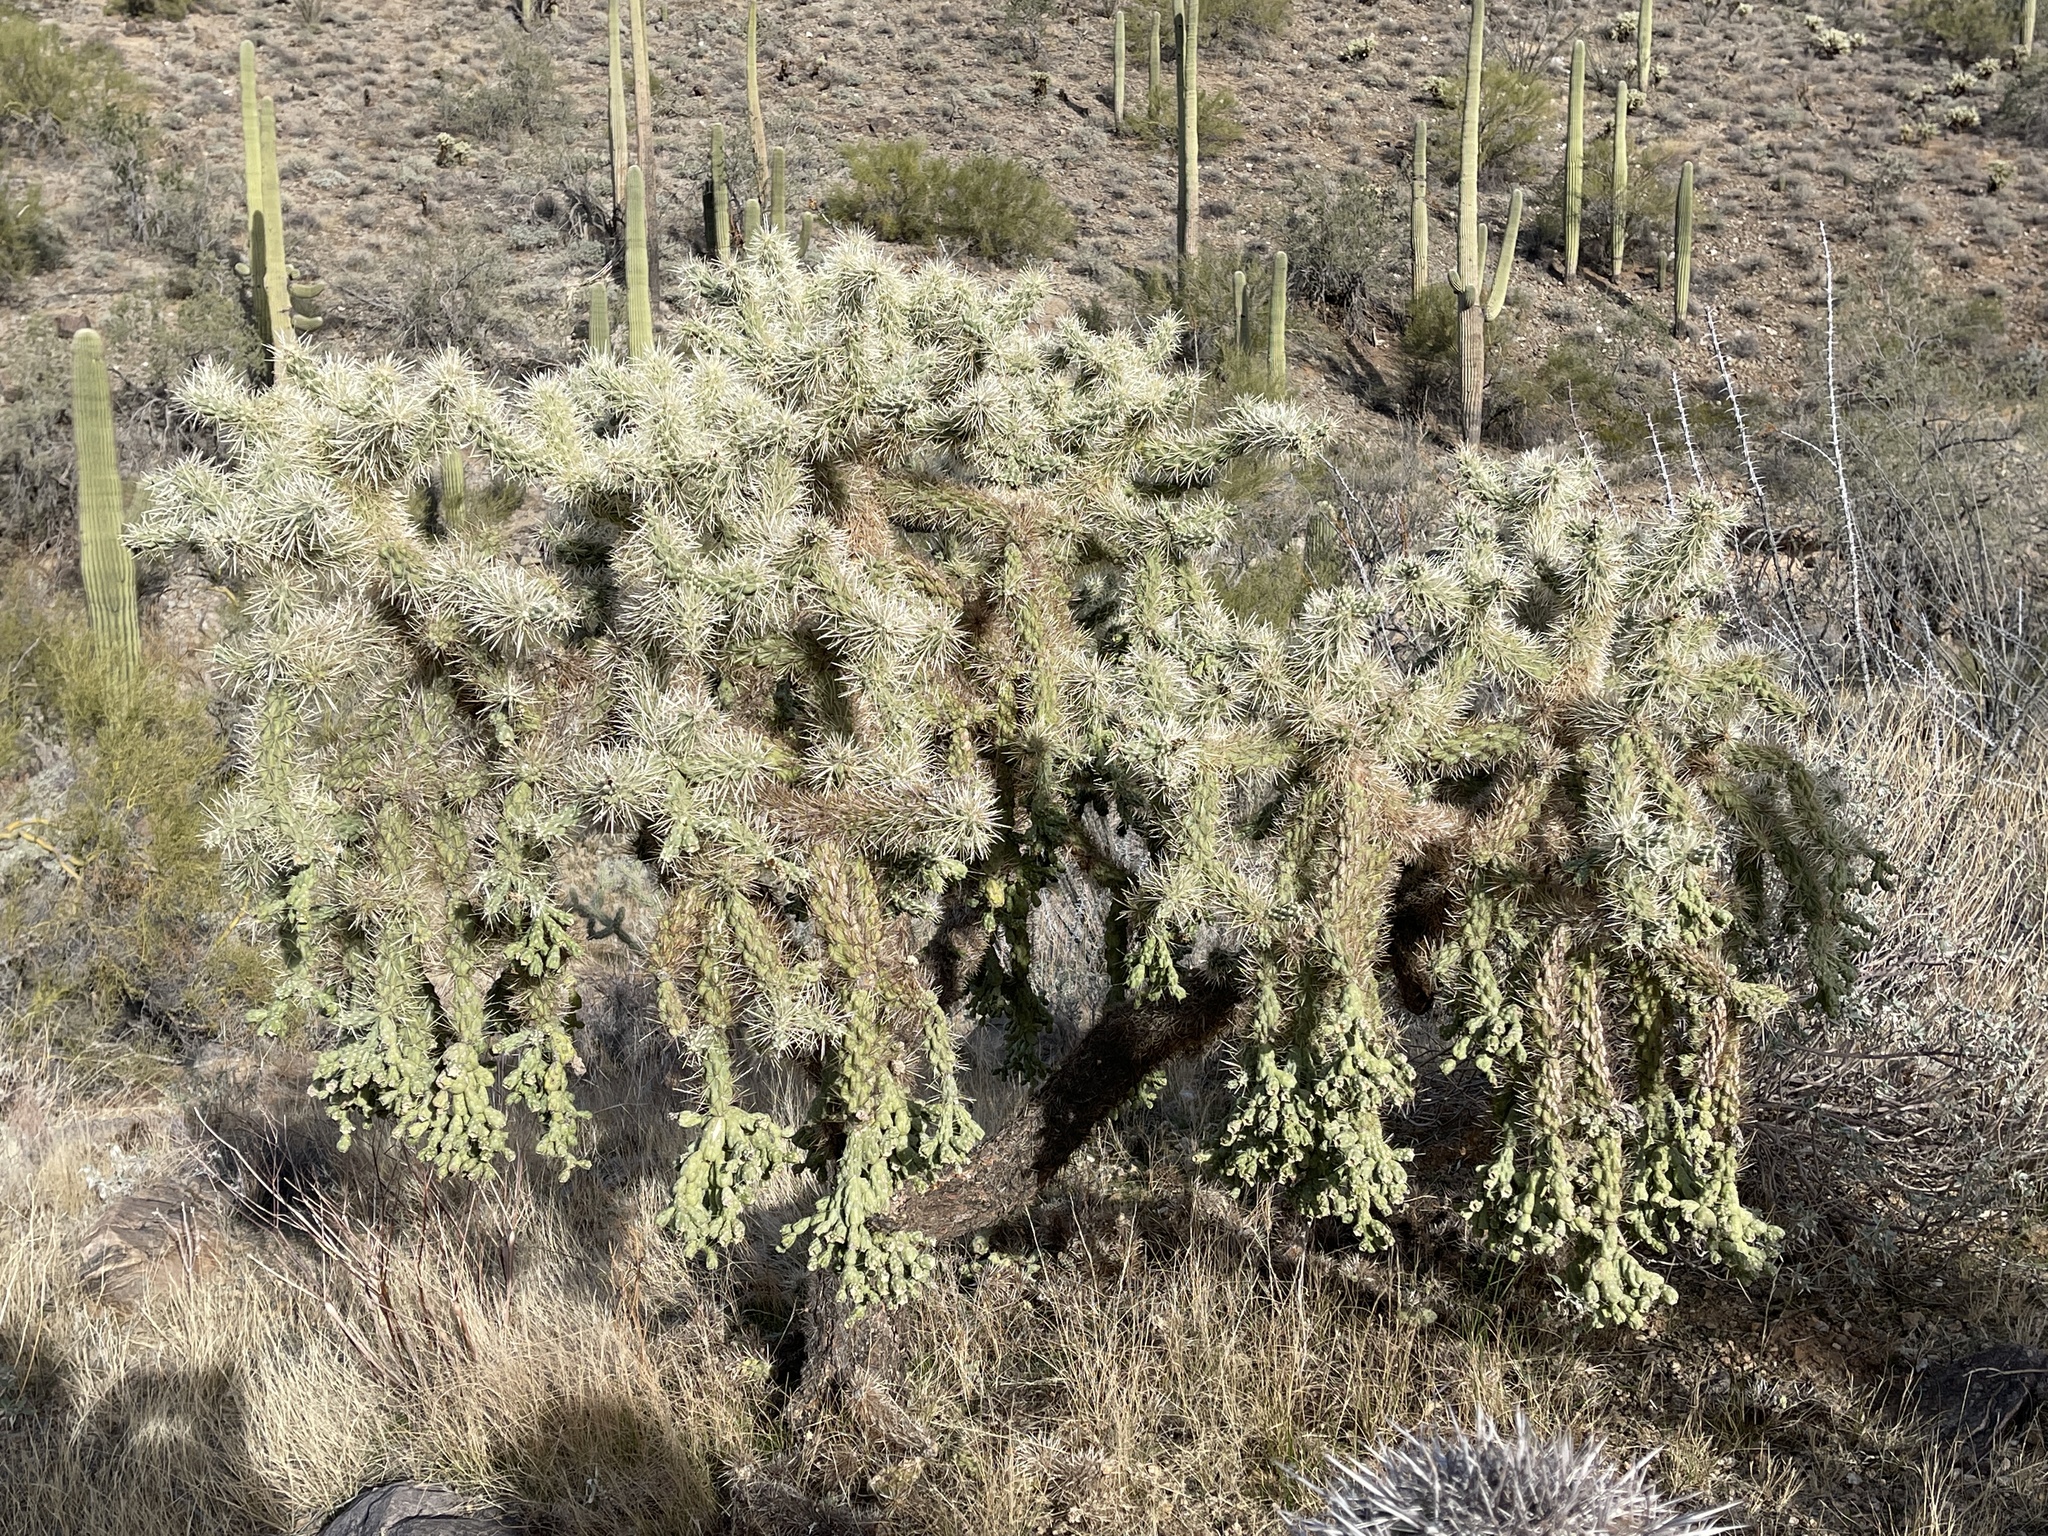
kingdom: Plantae
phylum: Tracheophyta
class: Magnoliopsida
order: Caryophyllales
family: Cactaceae
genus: Cylindropuntia
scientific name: Cylindropuntia fulgida
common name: Jumping cholla
